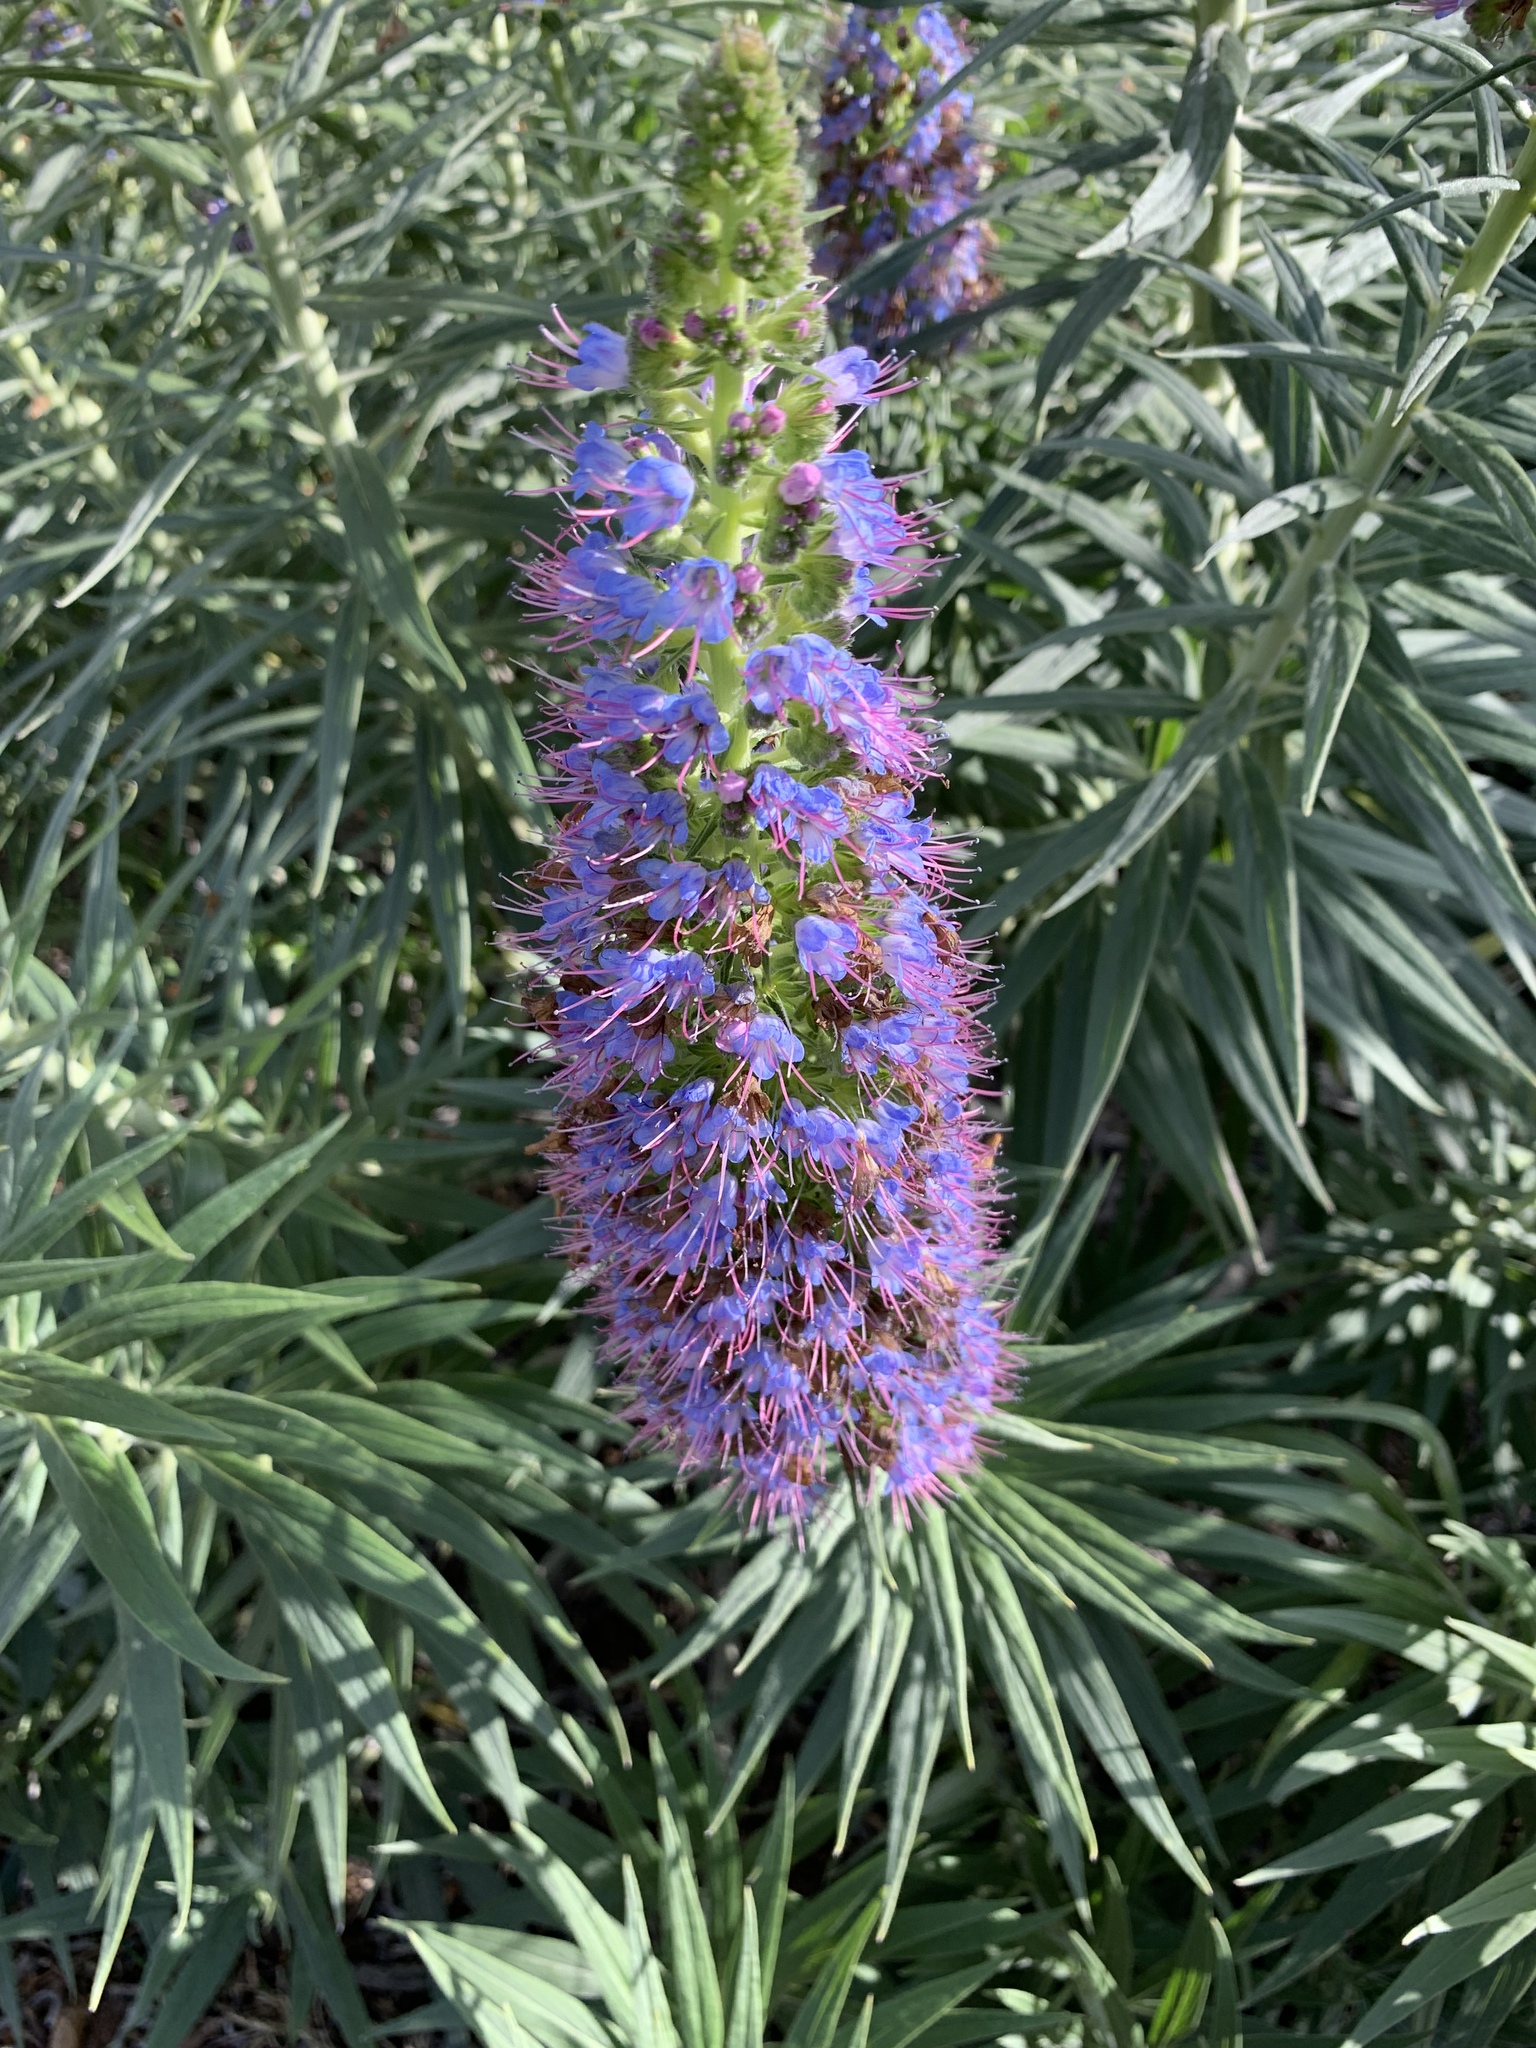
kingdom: Plantae
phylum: Tracheophyta
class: Magnoliopsida
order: Boraginales
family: Boraginaceae
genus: Echium
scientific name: Echium candicans
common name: Pride of madeira
